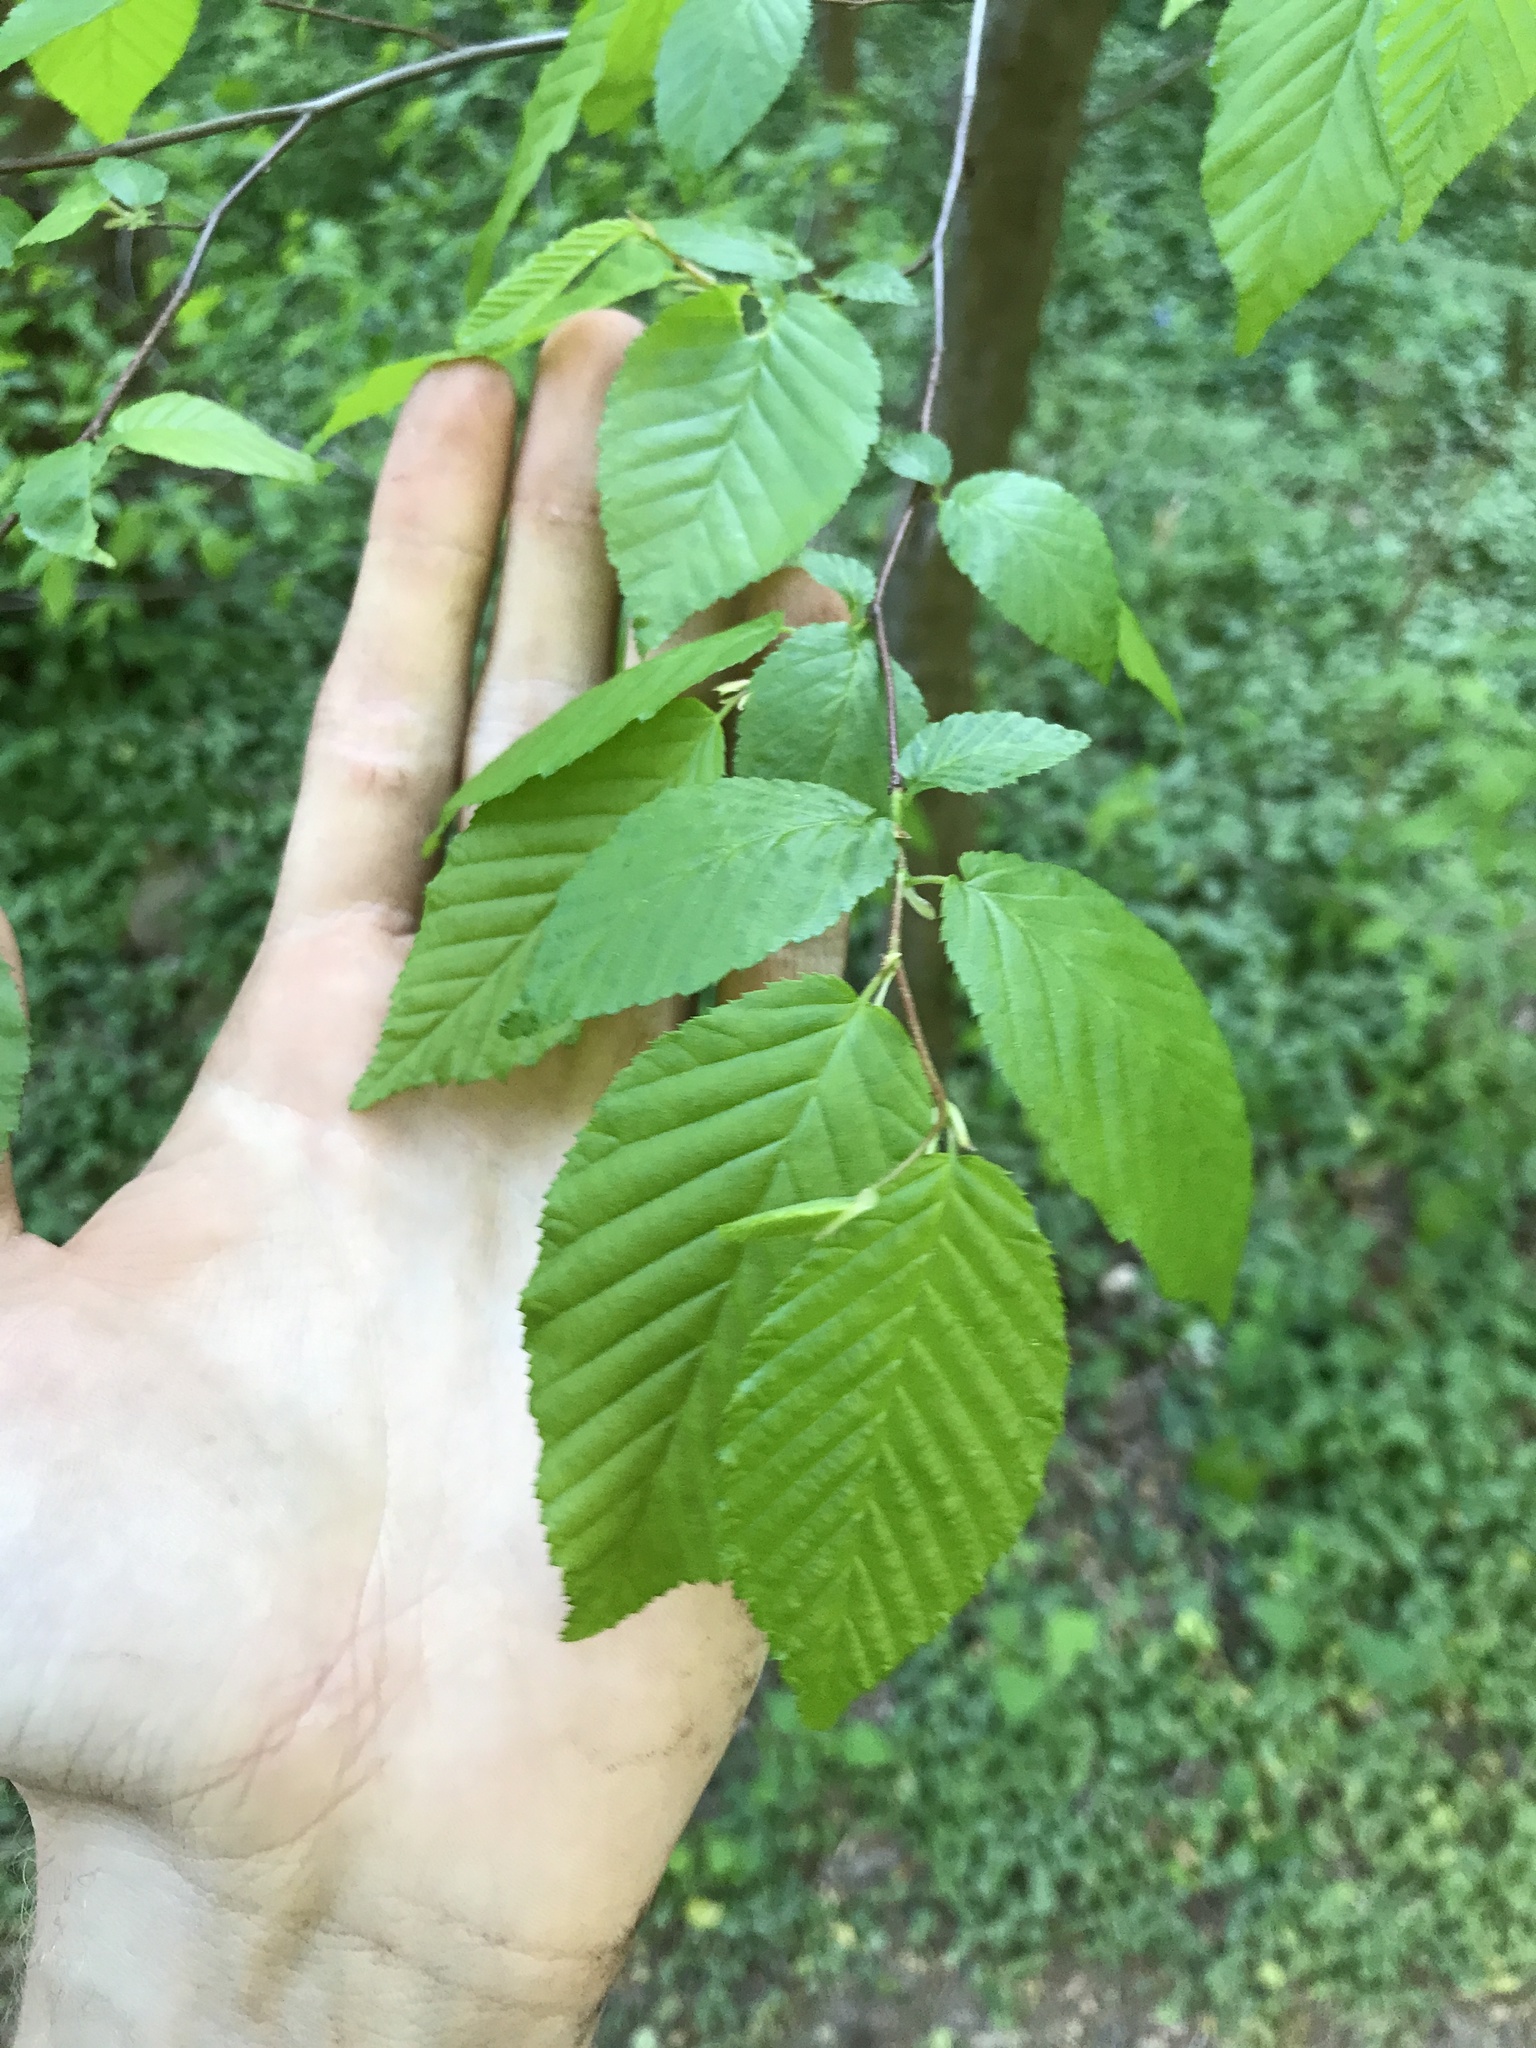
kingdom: Plantae
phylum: Tracheophyta
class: Magnoliopsida
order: Fagales
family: Betulaceae
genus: Carpinus
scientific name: Carpinus caroliniana
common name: American hornbeam
